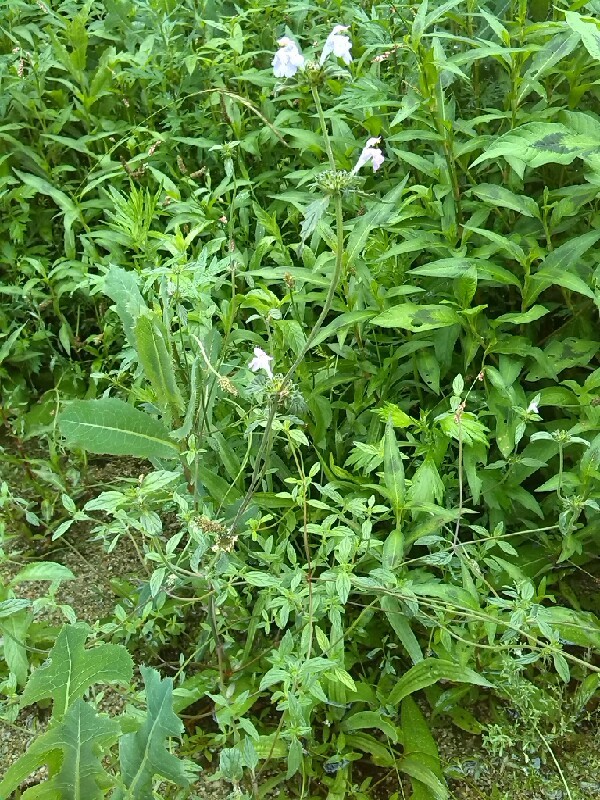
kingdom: Plantae
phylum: Tracheophyta
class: Magnoliopsida
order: Lamiales
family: Lamiaceae
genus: Galeopsis
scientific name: Galeopsis ladanum
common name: Broad-leaved hemp-nettle
